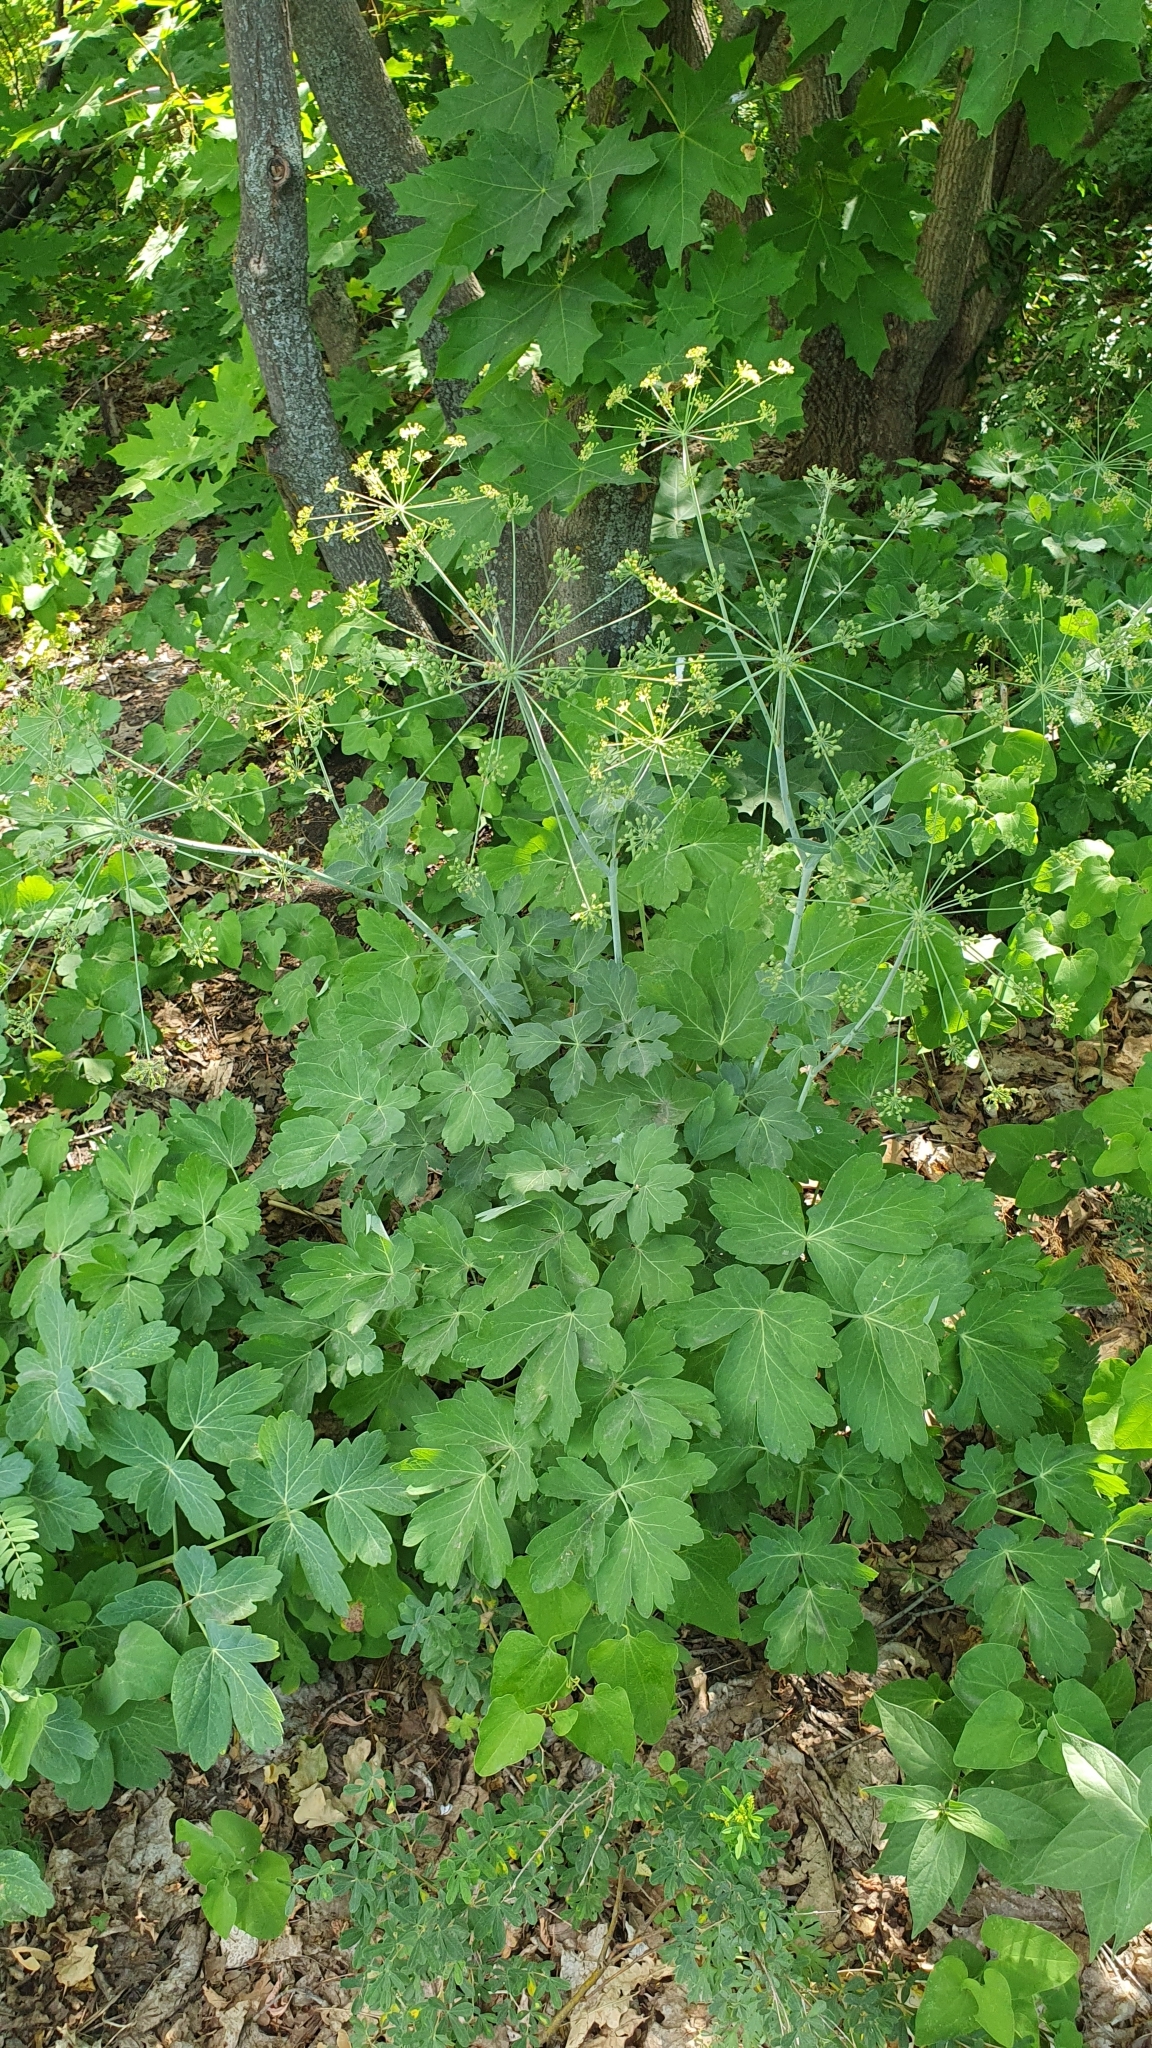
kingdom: Plantae
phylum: Tracheophyta
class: Magnoliopsida
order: Apiales
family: Apiaceae
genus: Laser
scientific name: Laser trilobum
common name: Laser
